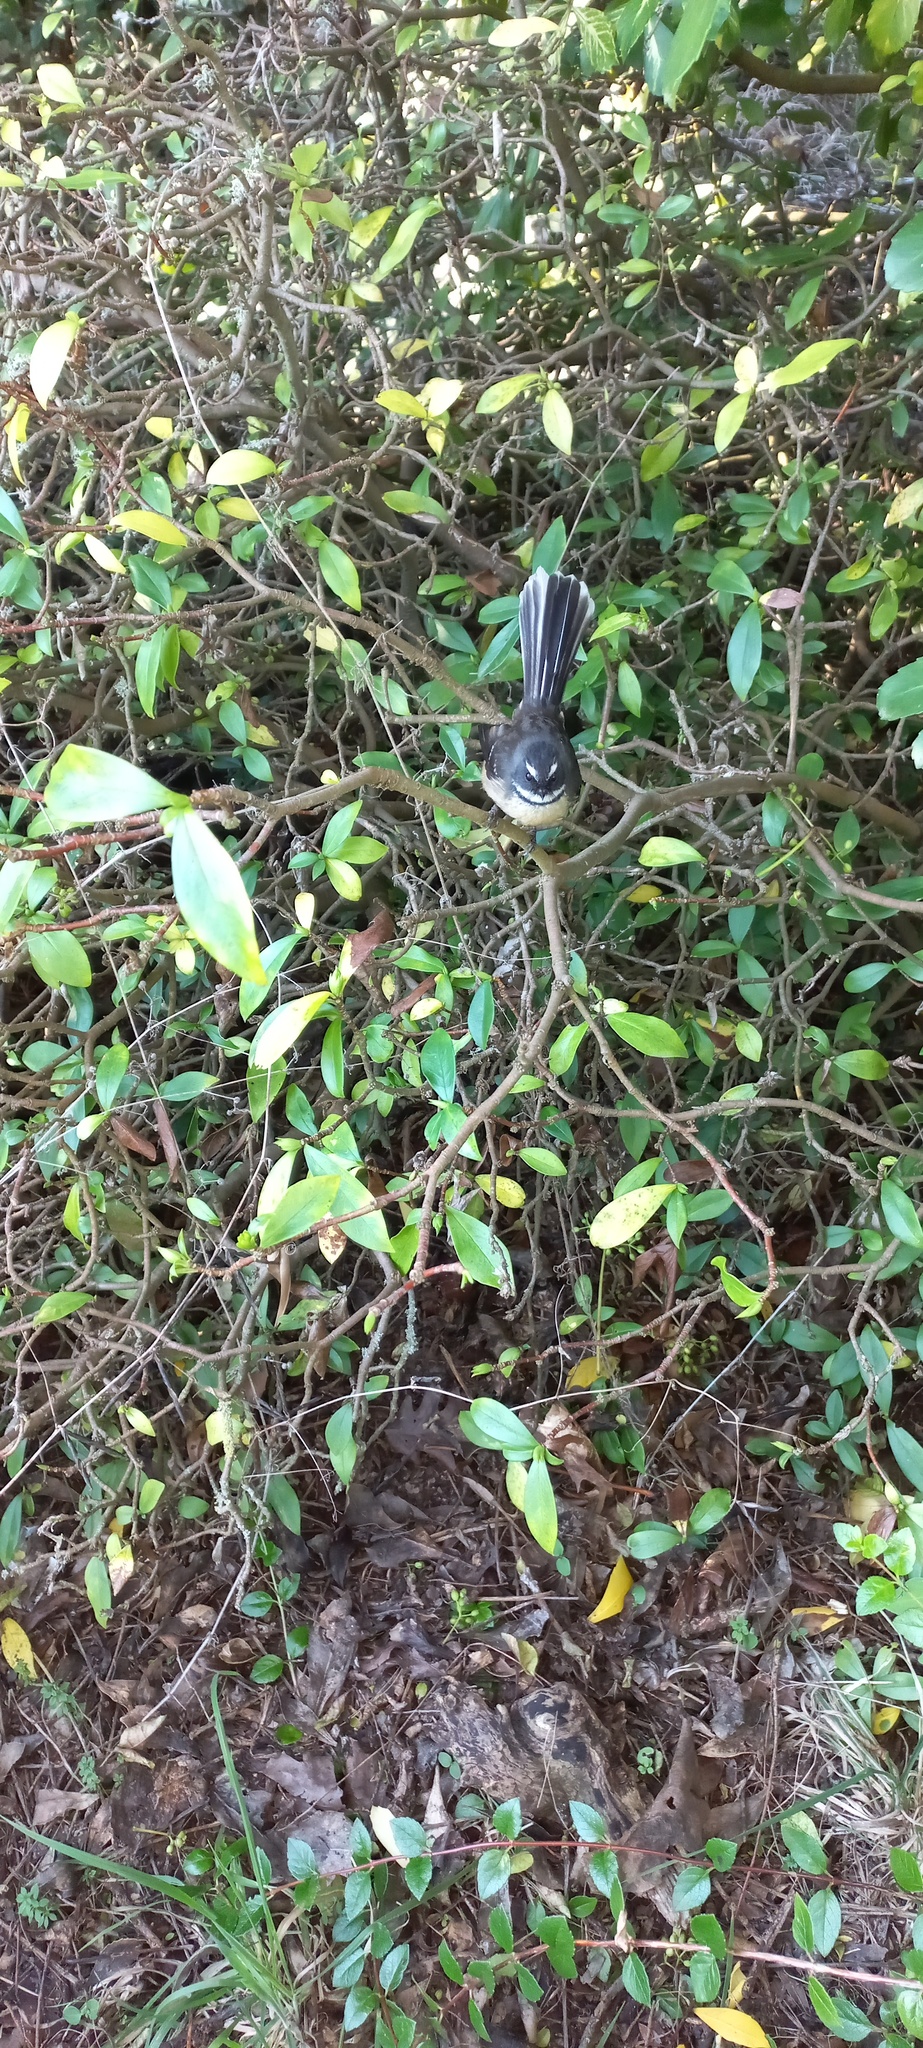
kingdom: Animalia
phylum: Chordata
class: Aves
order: Passeriformes
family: Rhipiduridae
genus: Rhipidura
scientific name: Rhipidura fuliginosa
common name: New zealand fantail
